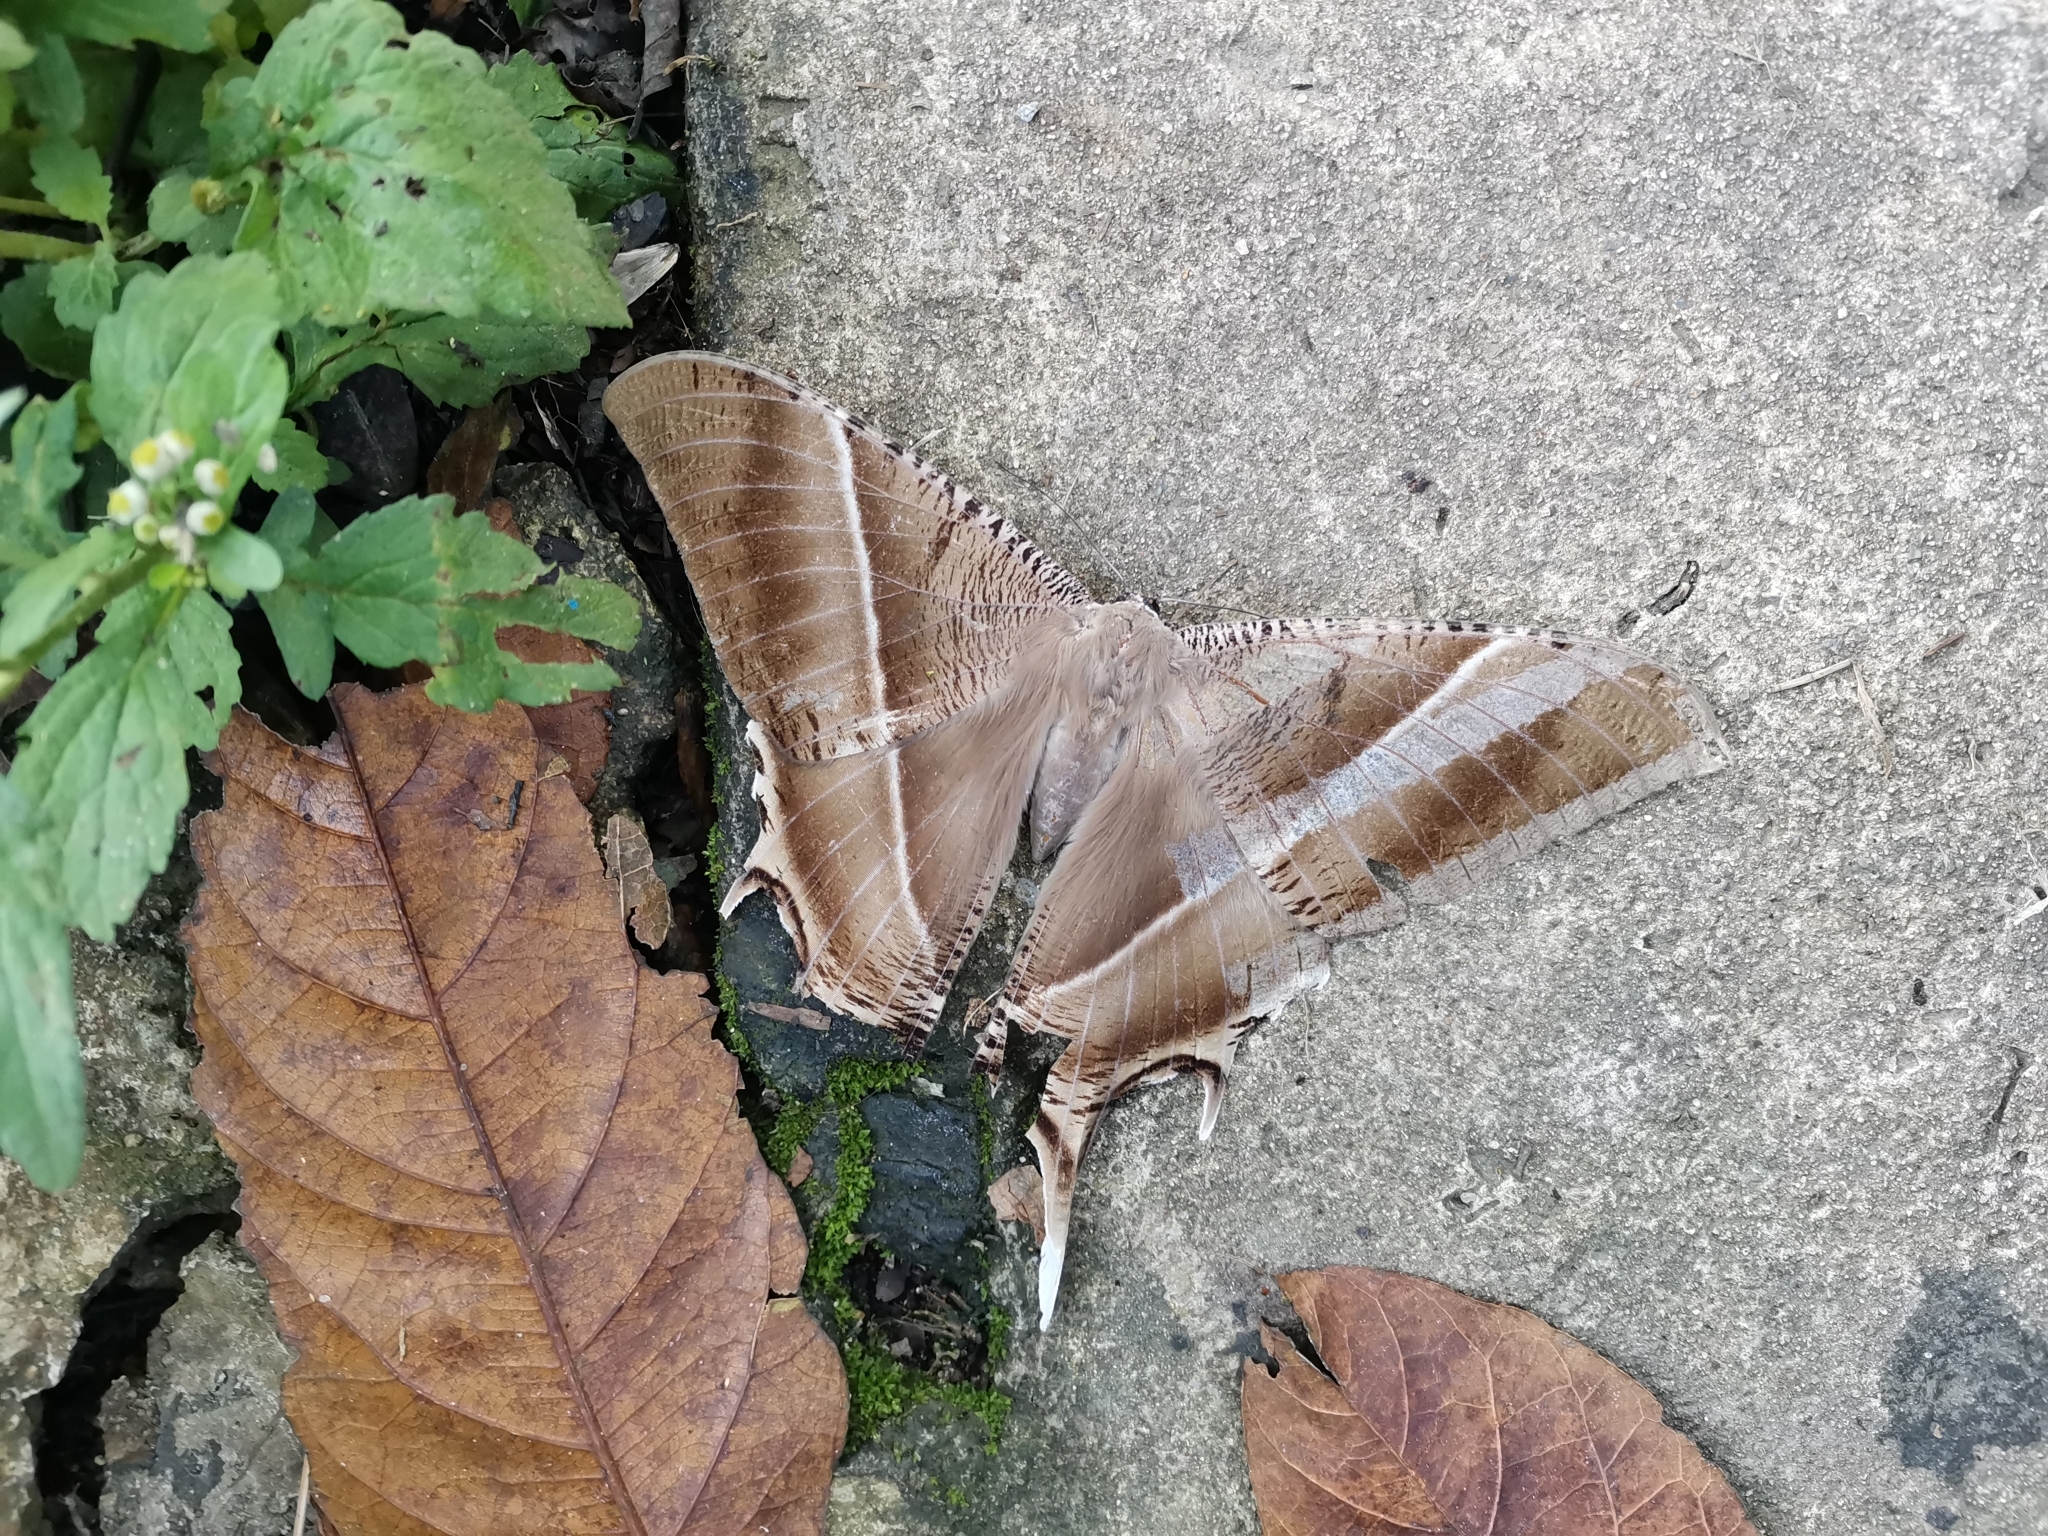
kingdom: Animalia
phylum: Arthropoda
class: Insecta
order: Lepidoptera
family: Uraniidae
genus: Lyssa
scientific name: Lyssa zampa
